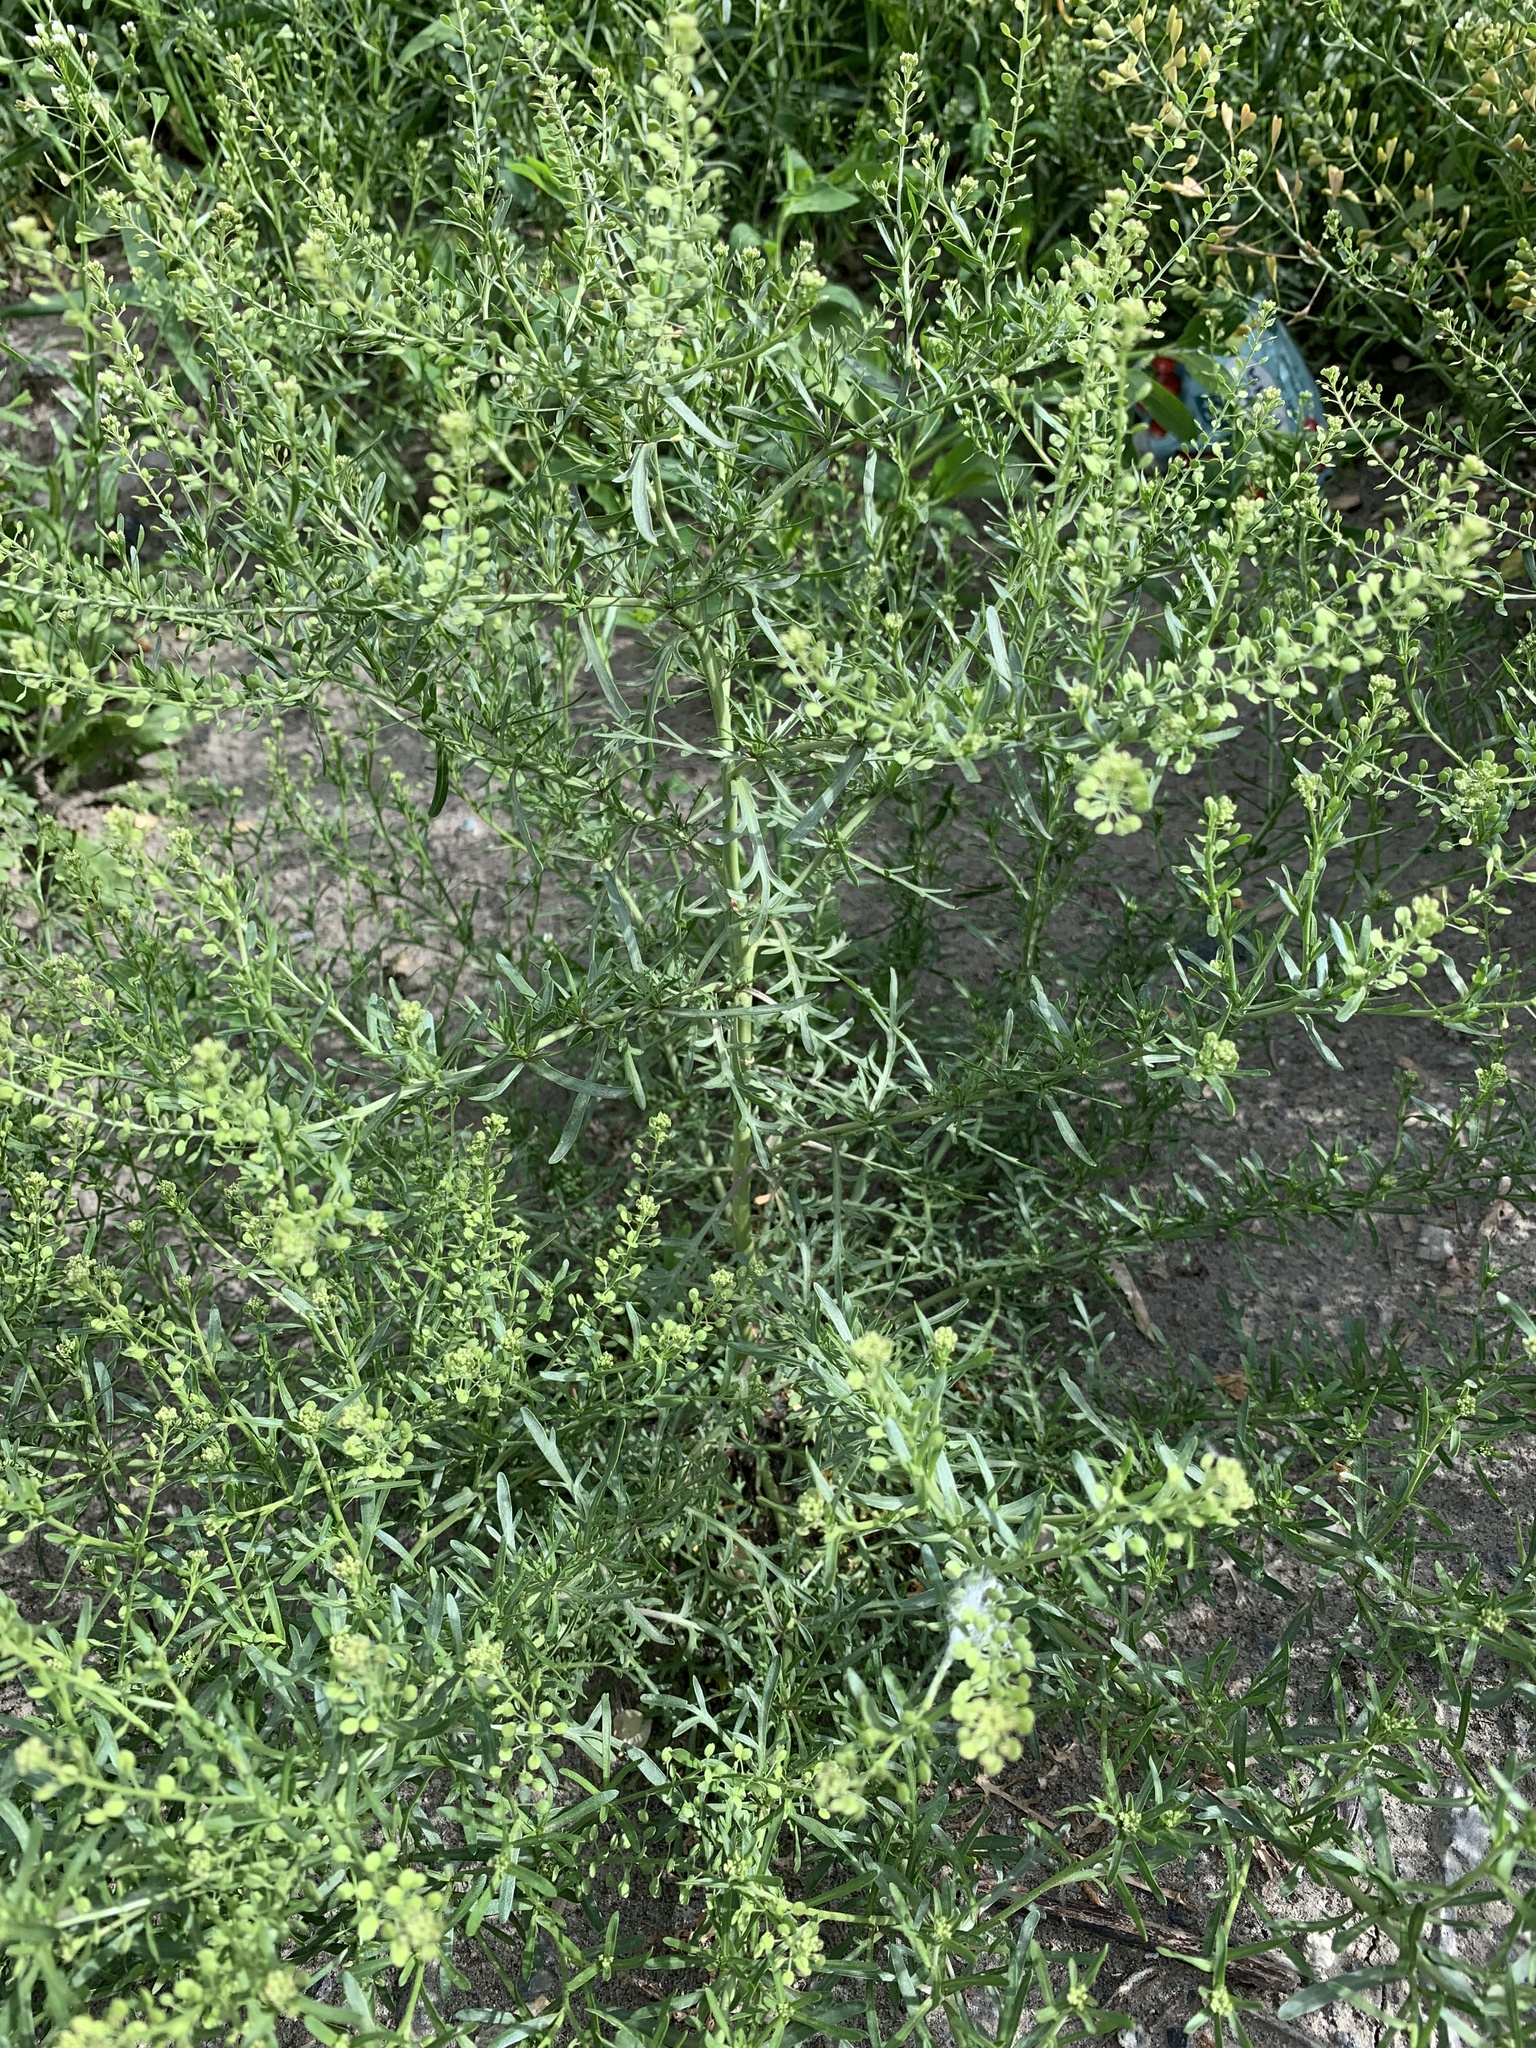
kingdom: Plantae
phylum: Tracheophyta
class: Magnoliopsida
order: Brassicales
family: Brassicaceae
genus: Lepidium
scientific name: Lepidium ruderale
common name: Narrow-leaved pepperwort
